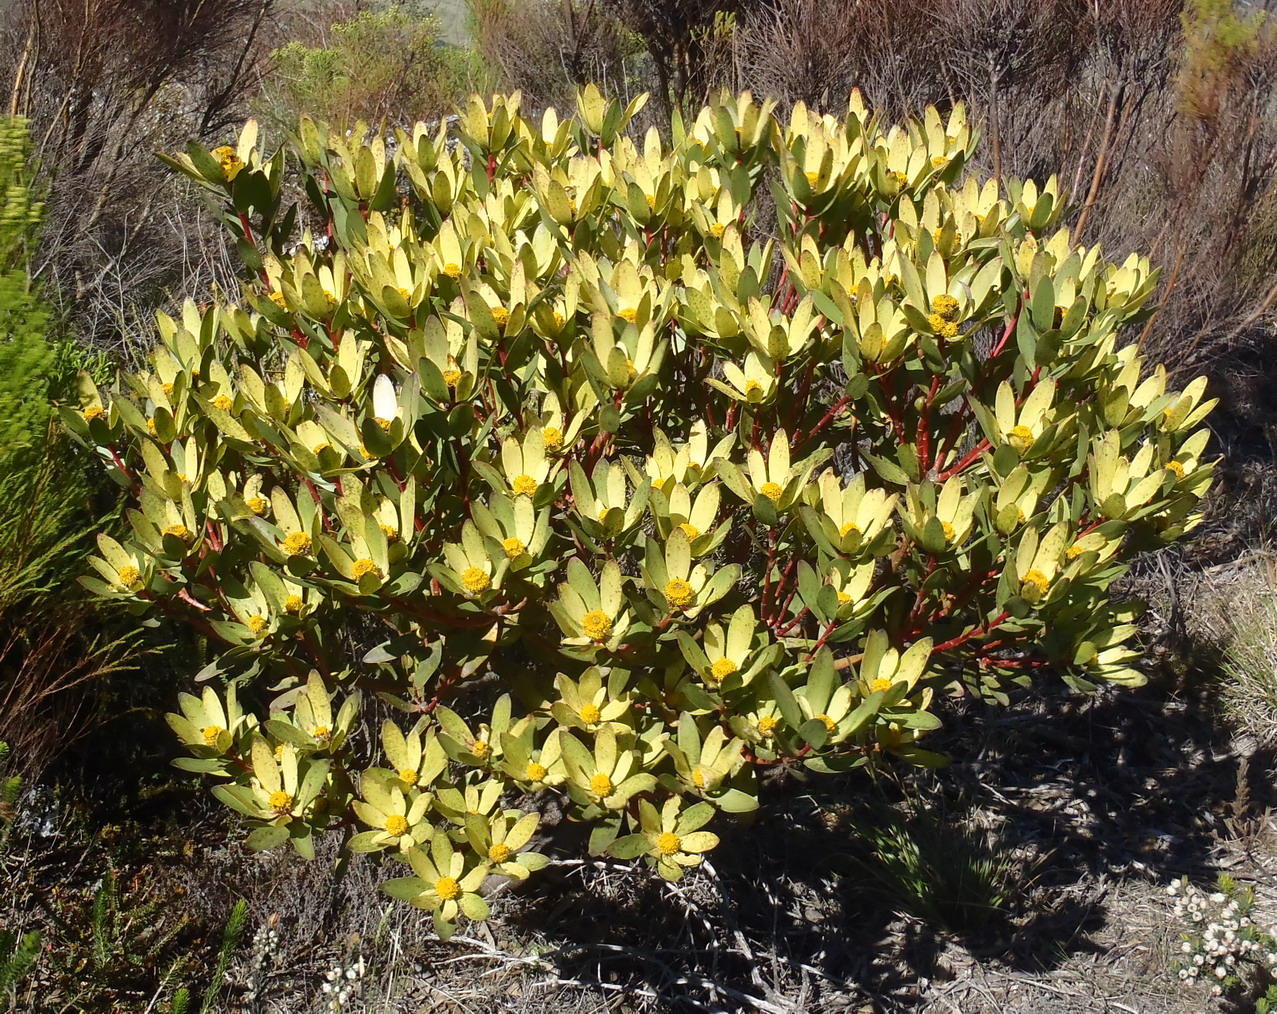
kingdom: Plantae
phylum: Tracheophyta
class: Magnoliopsida
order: Proteales
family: Proteaceae
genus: Leucadendron
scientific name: Leucadendron gandogeri
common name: Broad-leaf conebush
